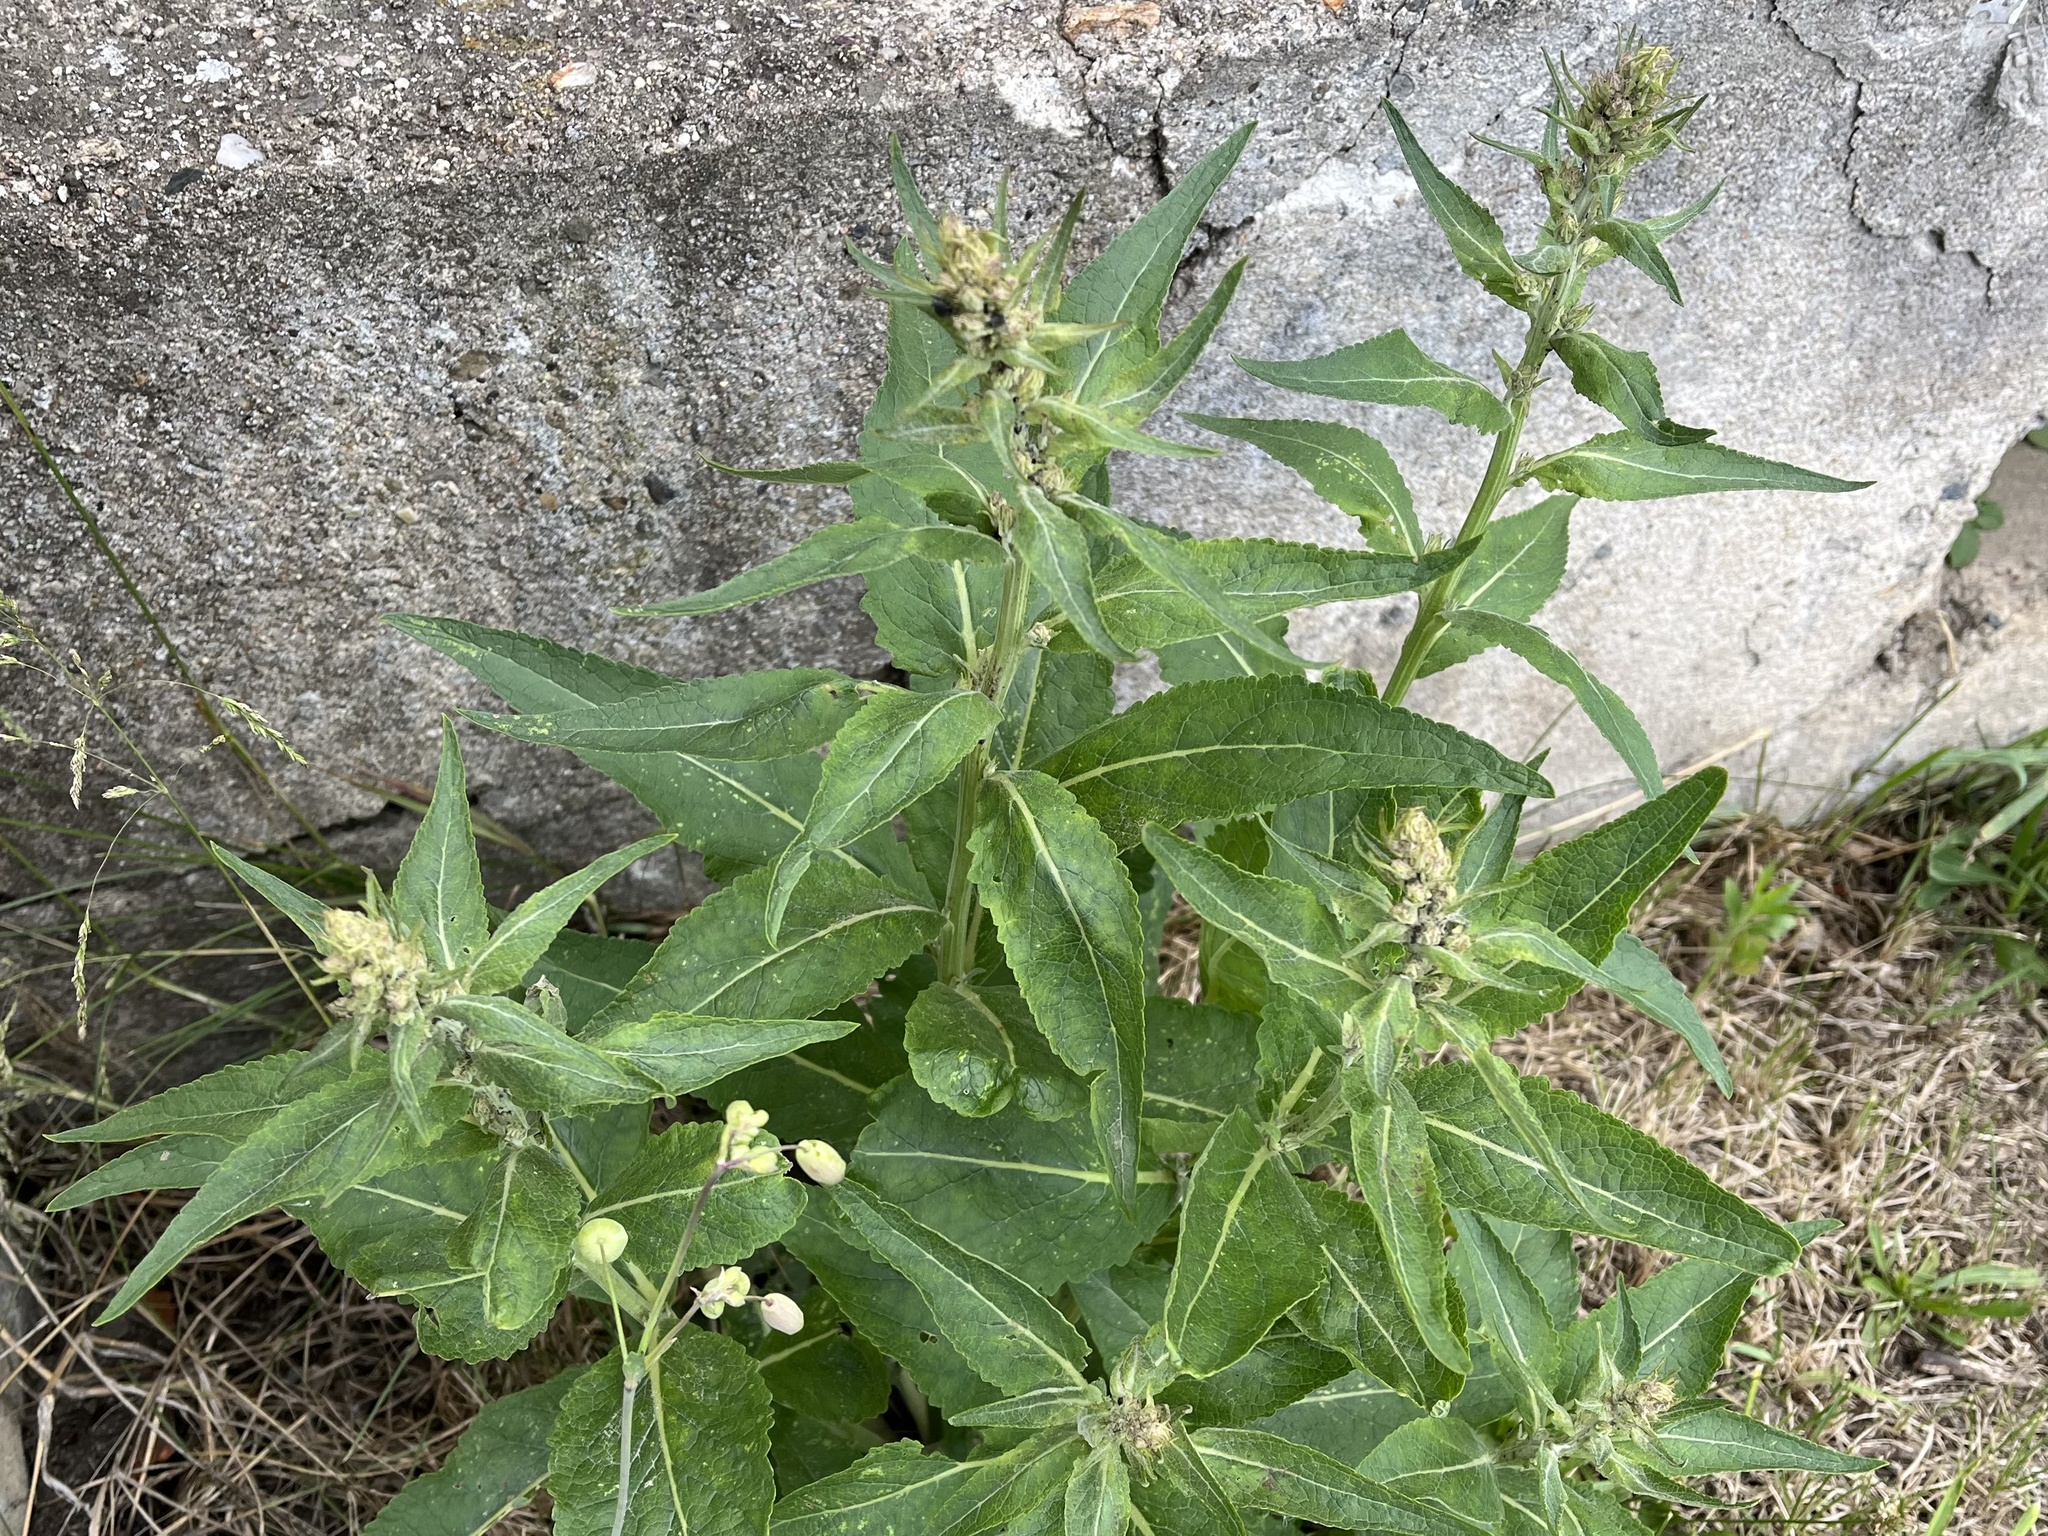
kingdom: Plantae
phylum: Tracheophyta
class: Magnoliopsida
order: Lamiales
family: Scrophulariaceae
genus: Verbascum
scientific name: Verbascum lychnitis
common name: White mullein
